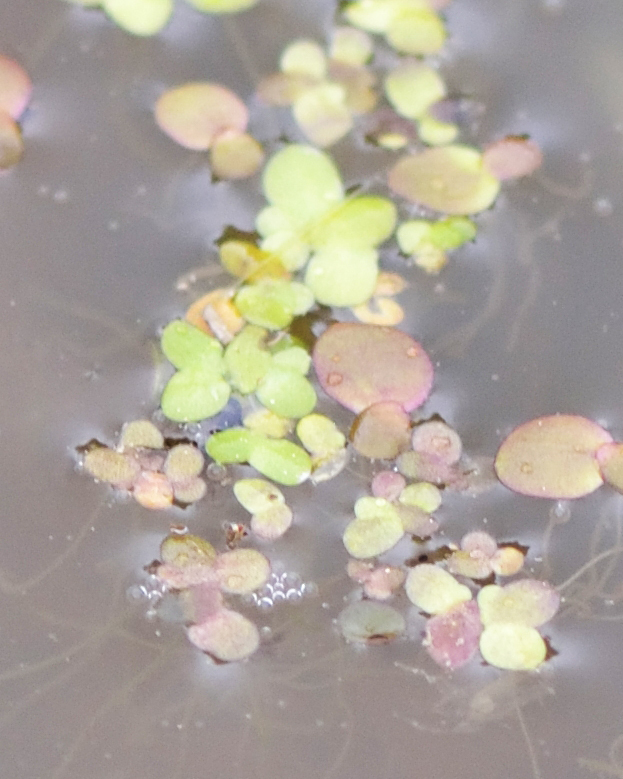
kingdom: Plantae
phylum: Tracheophyta
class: Liliopsida
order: Alismatales
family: Araceae
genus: Spirodela
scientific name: Spirodela polyrhiza
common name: Great duckweed
